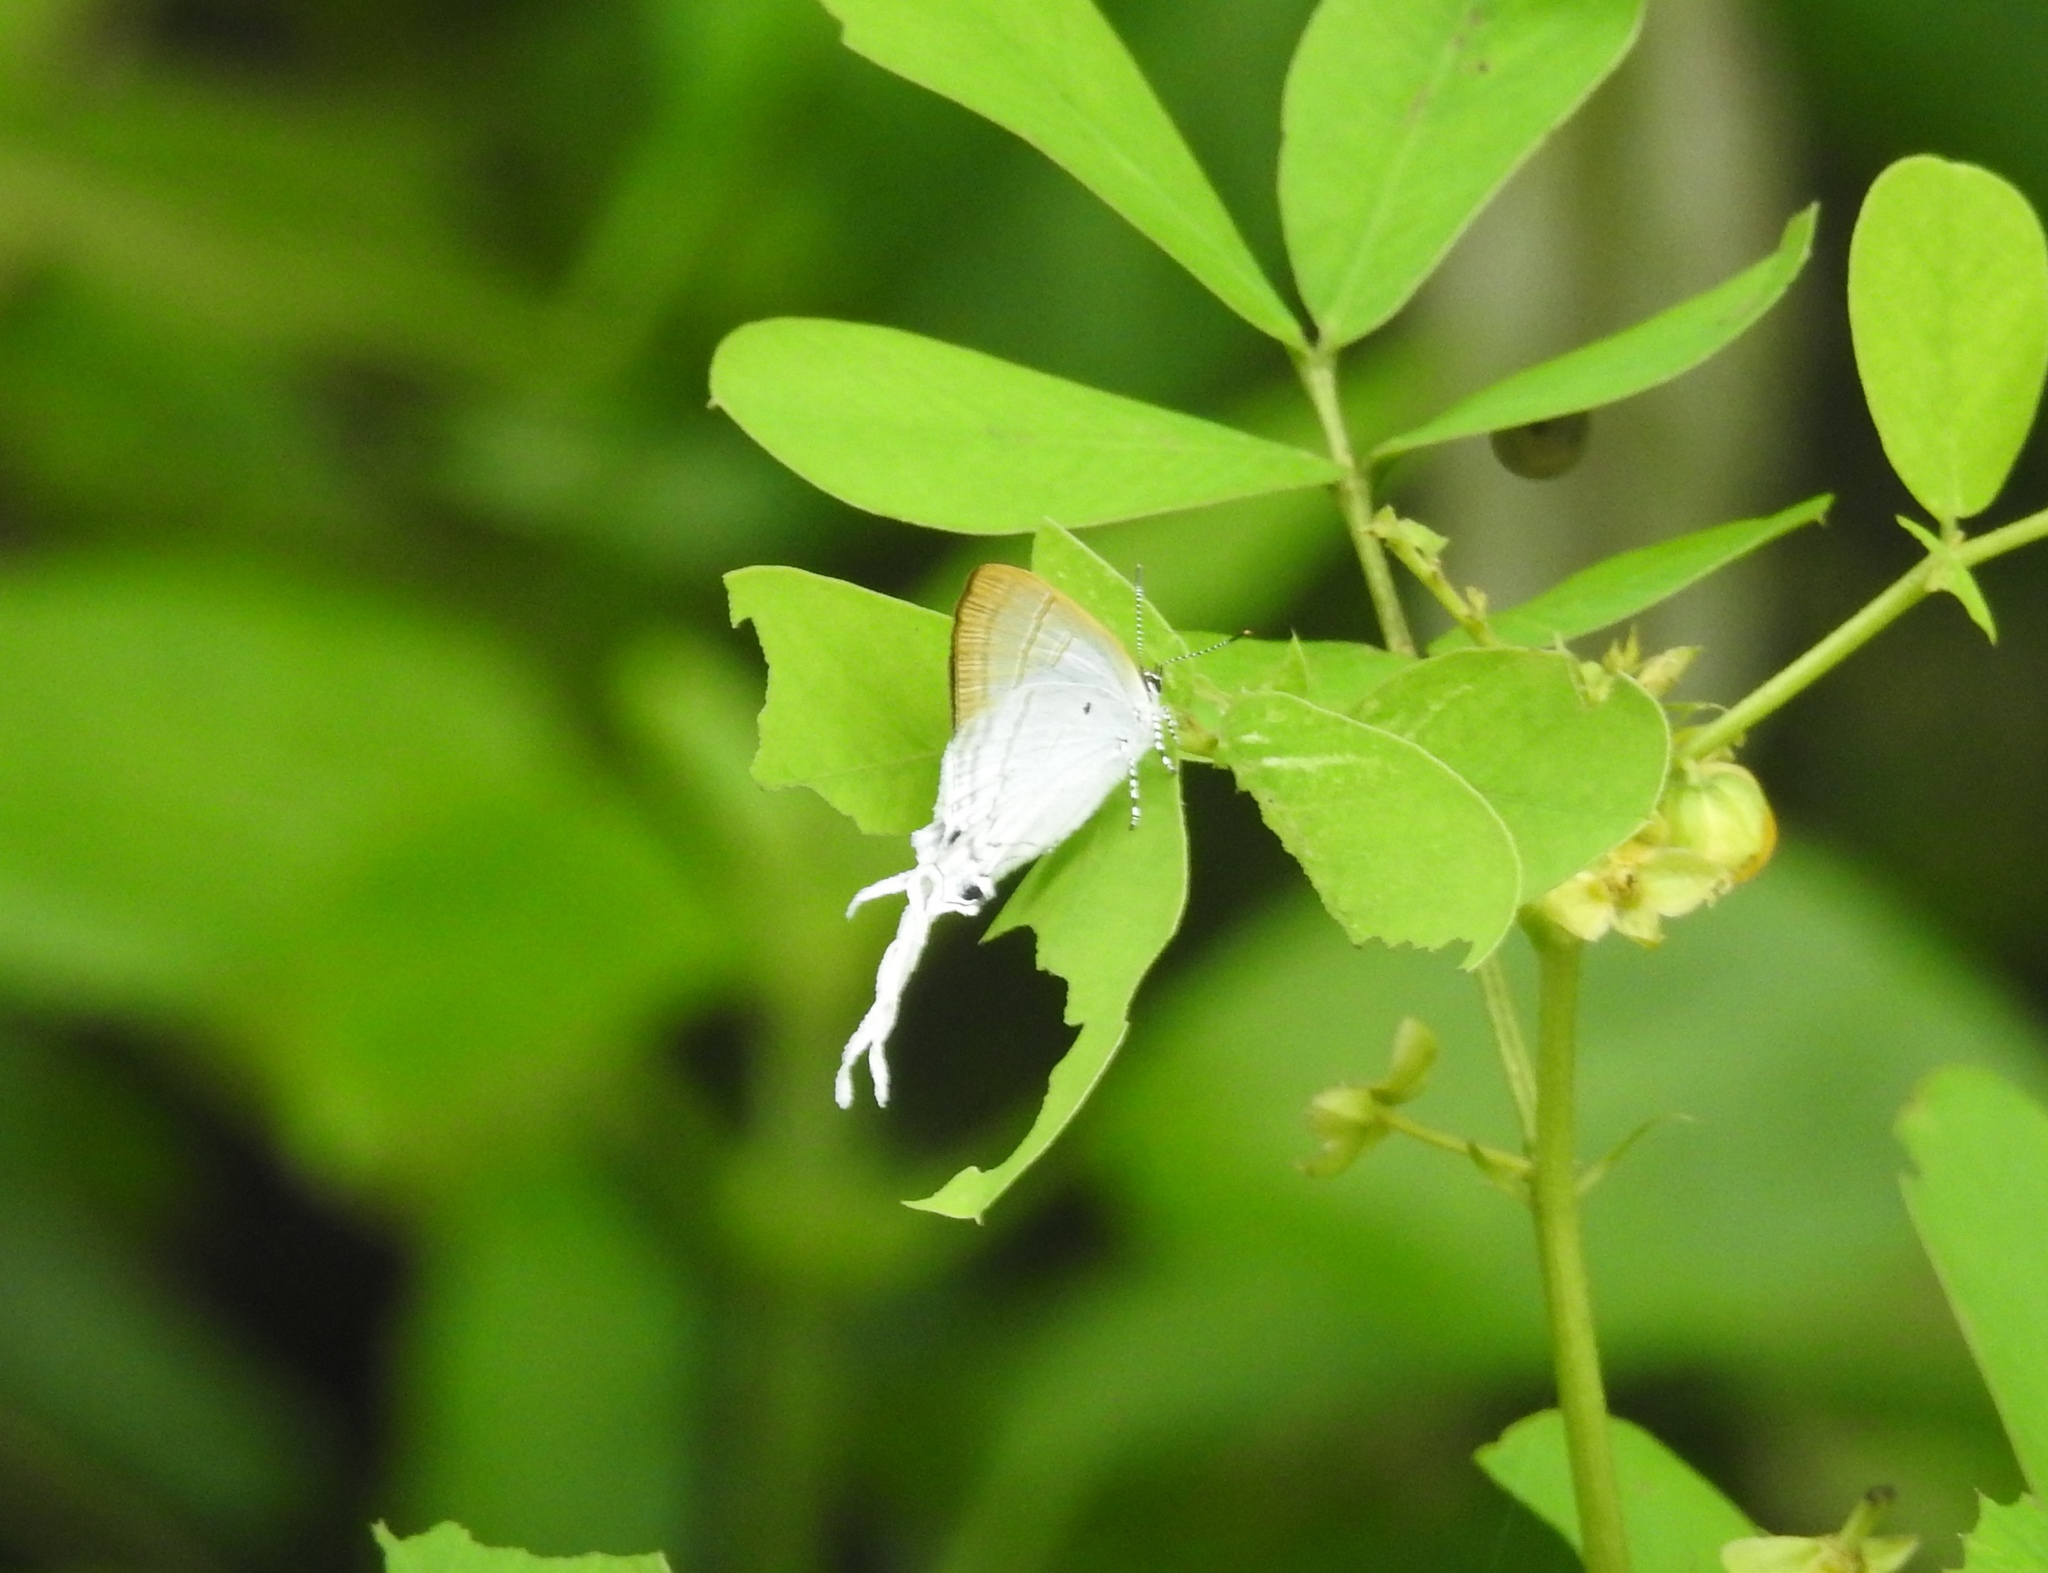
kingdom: Animalia
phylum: Arthropoda
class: Insecta
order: Lepidoptera
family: Lycaenidae
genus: Zeltus
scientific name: Zeltus amasa
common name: Fluffy tit
